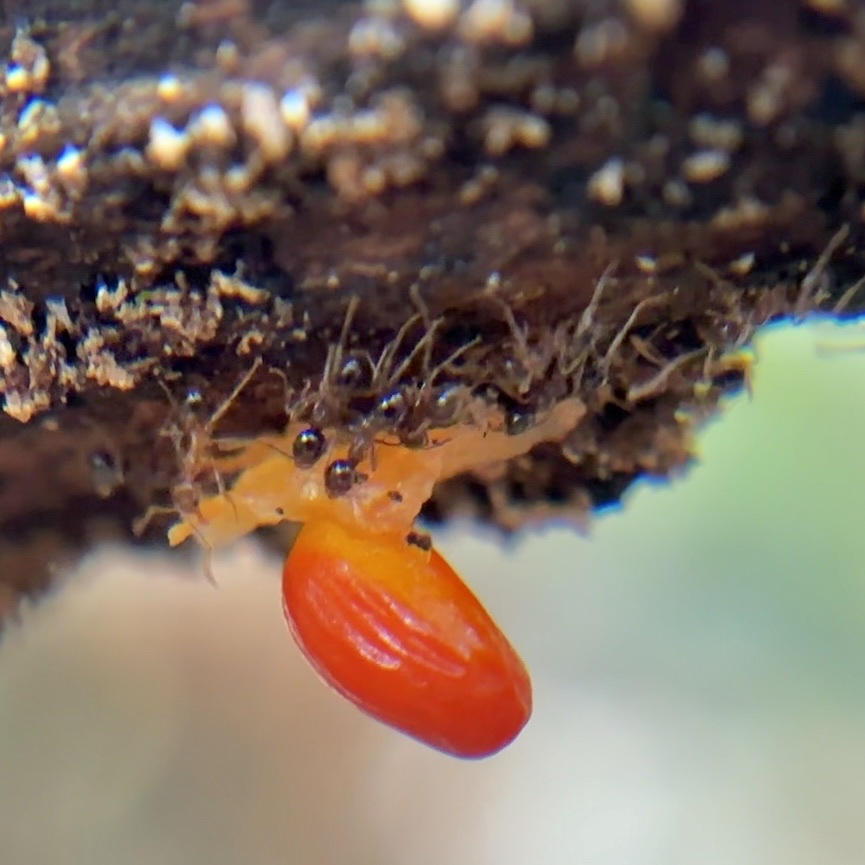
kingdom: Animalia
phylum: Arthropoda
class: Insecta
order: Hymenoptera
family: Formicidae
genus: Pheidole
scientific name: Pheidole megacephala
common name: Bigheaded ant
